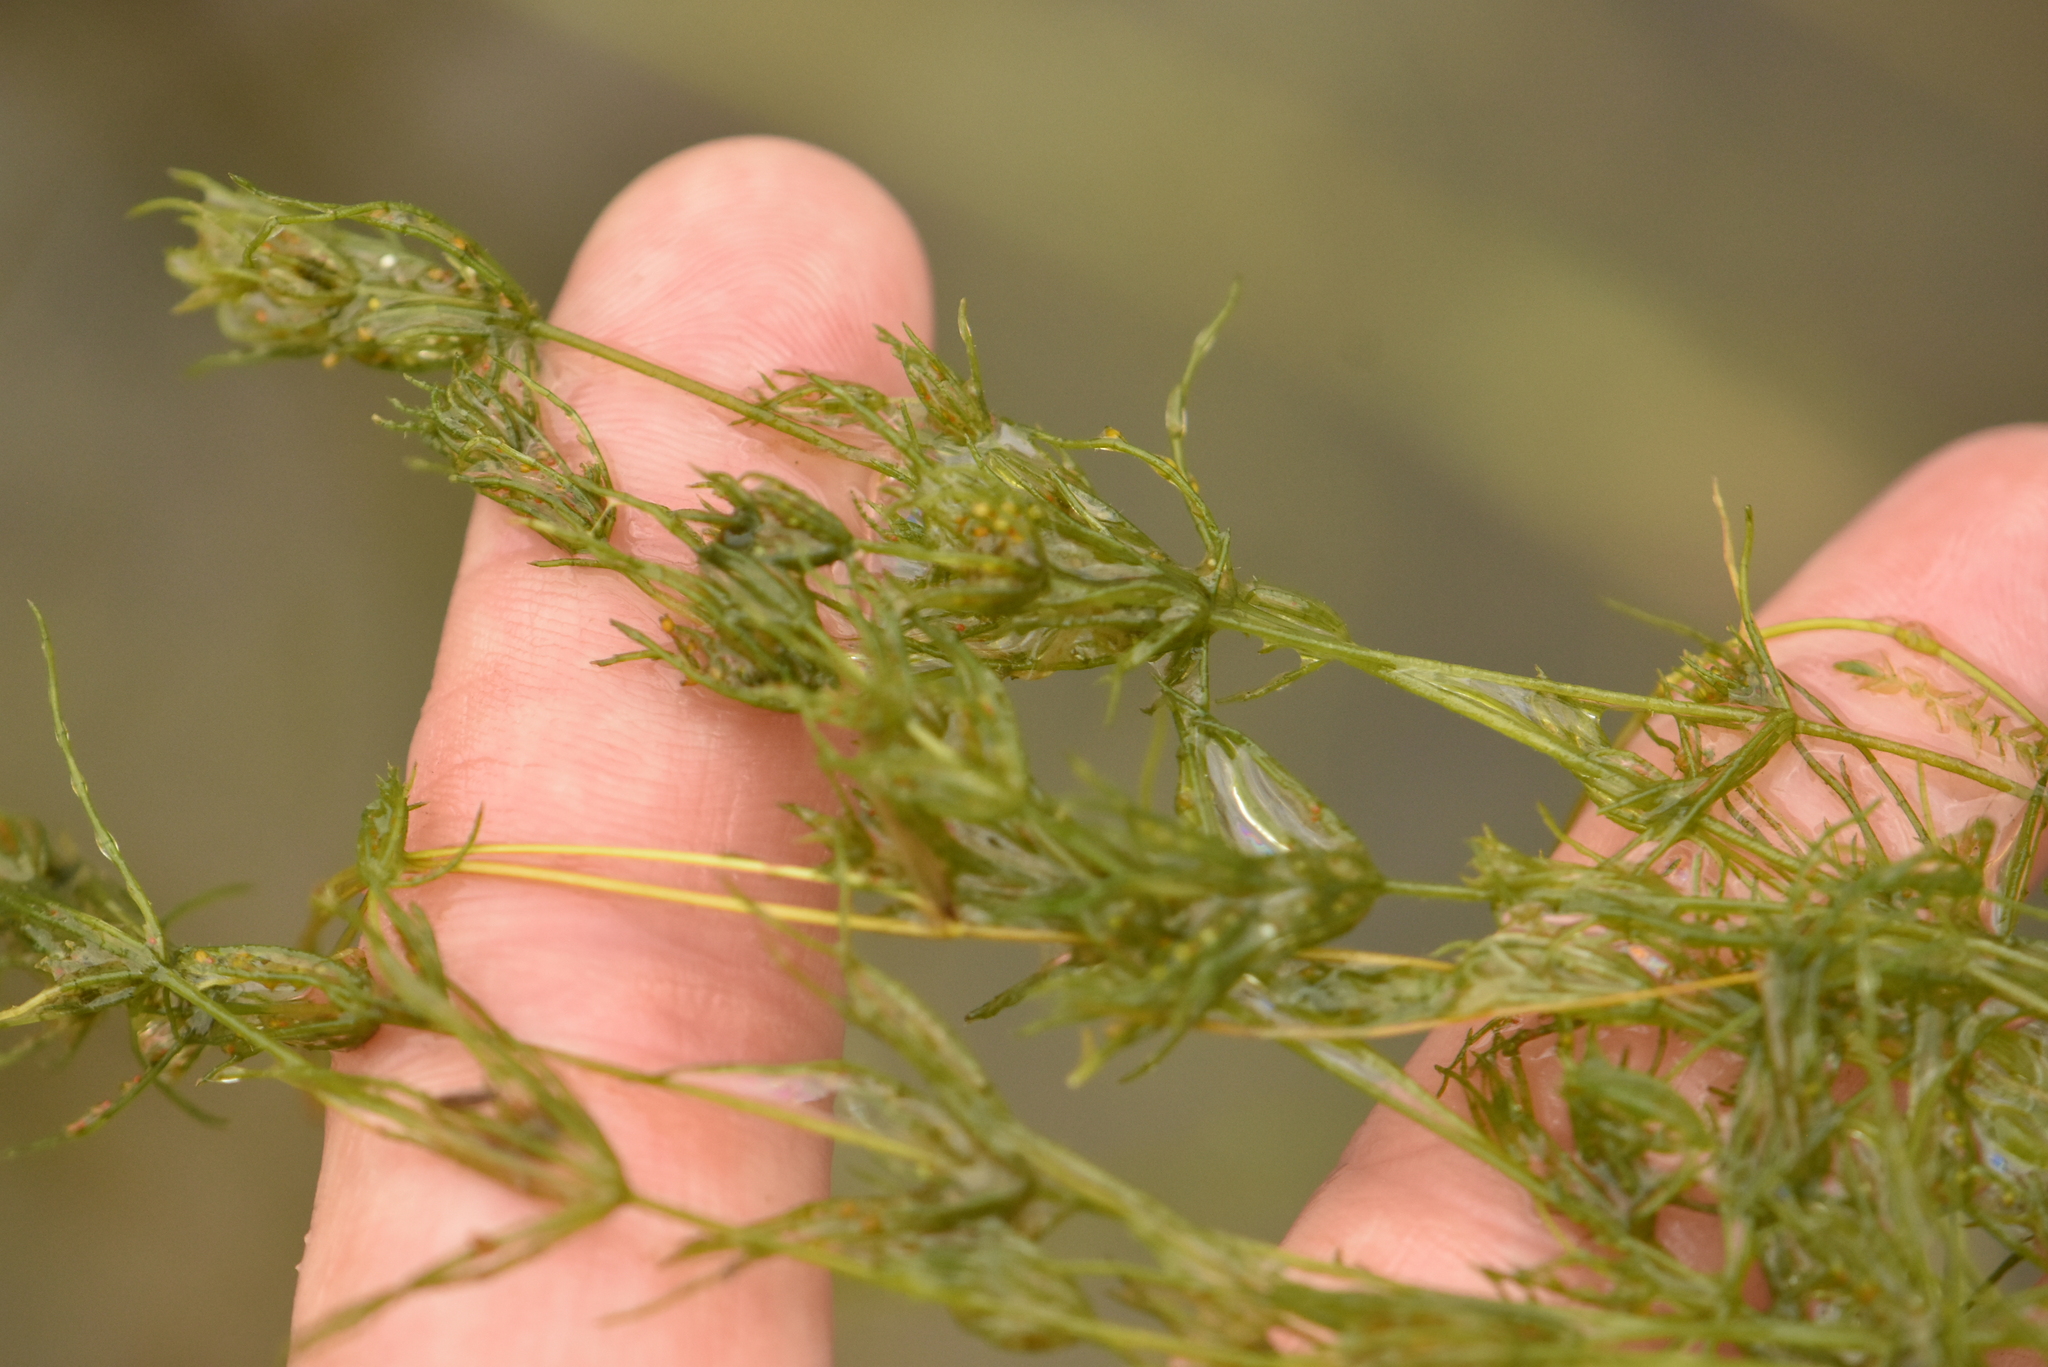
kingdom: Plantae
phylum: Charophyta
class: Charophyceae
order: Charales
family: Characeae
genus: Chara
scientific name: Chara globularis
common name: Fragile stonewort
